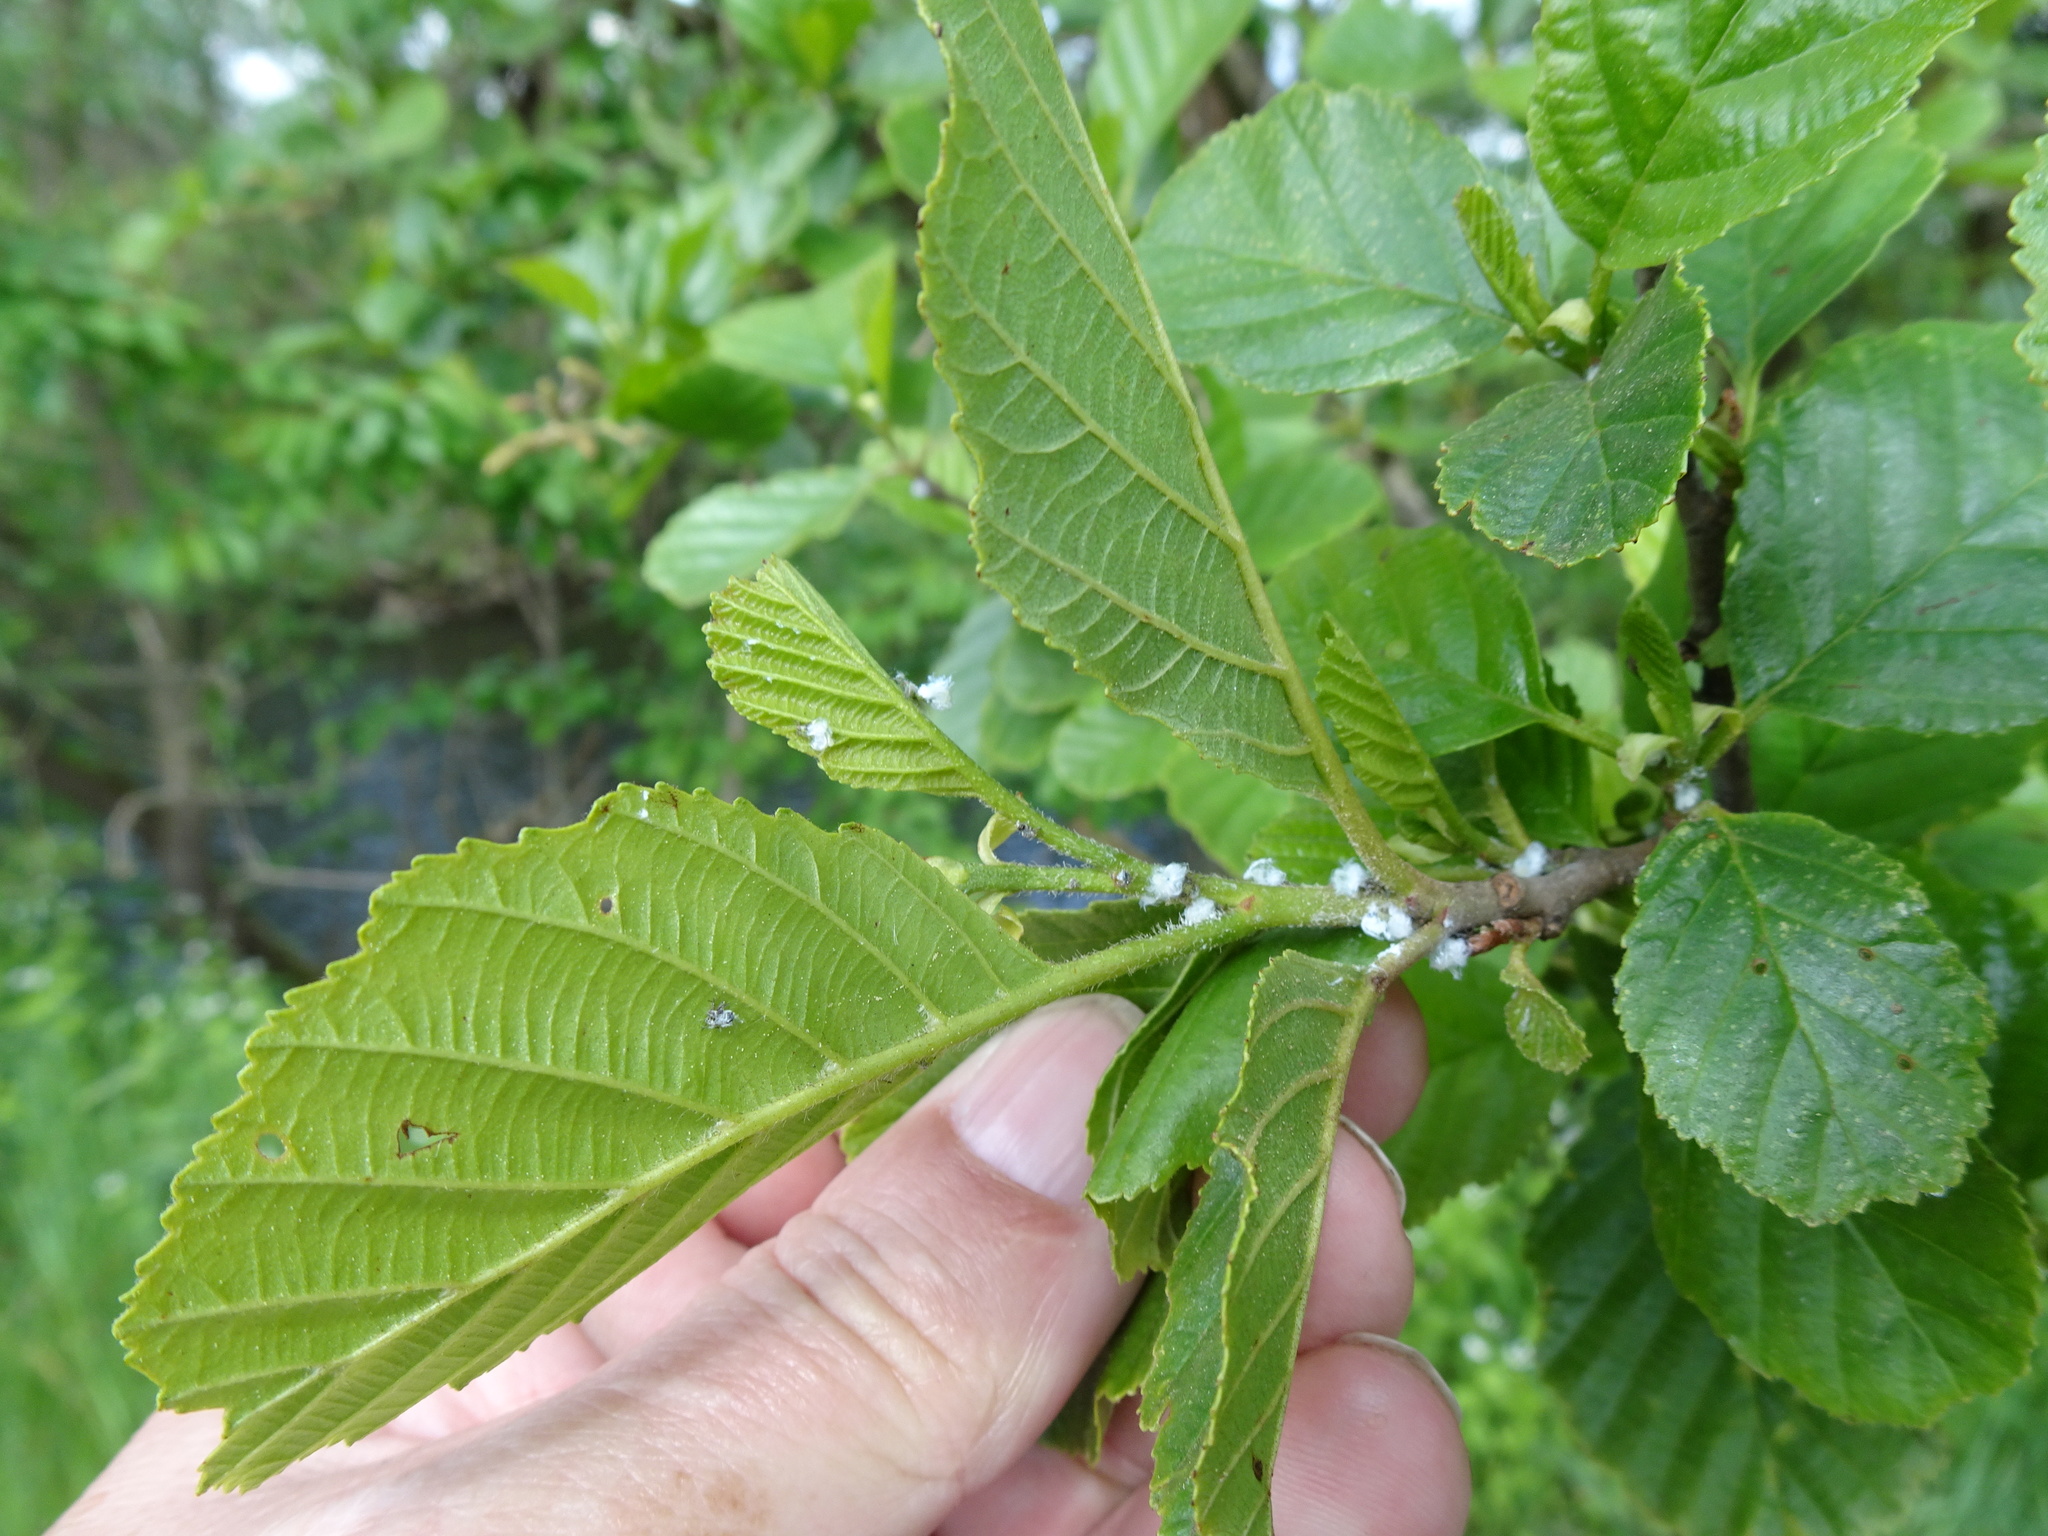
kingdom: Plantae
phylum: Tracheophyta
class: Magnoliopsida
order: Fagales
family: Betulaceae
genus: Alnus
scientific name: Alnus glutinosa
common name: Black alder
